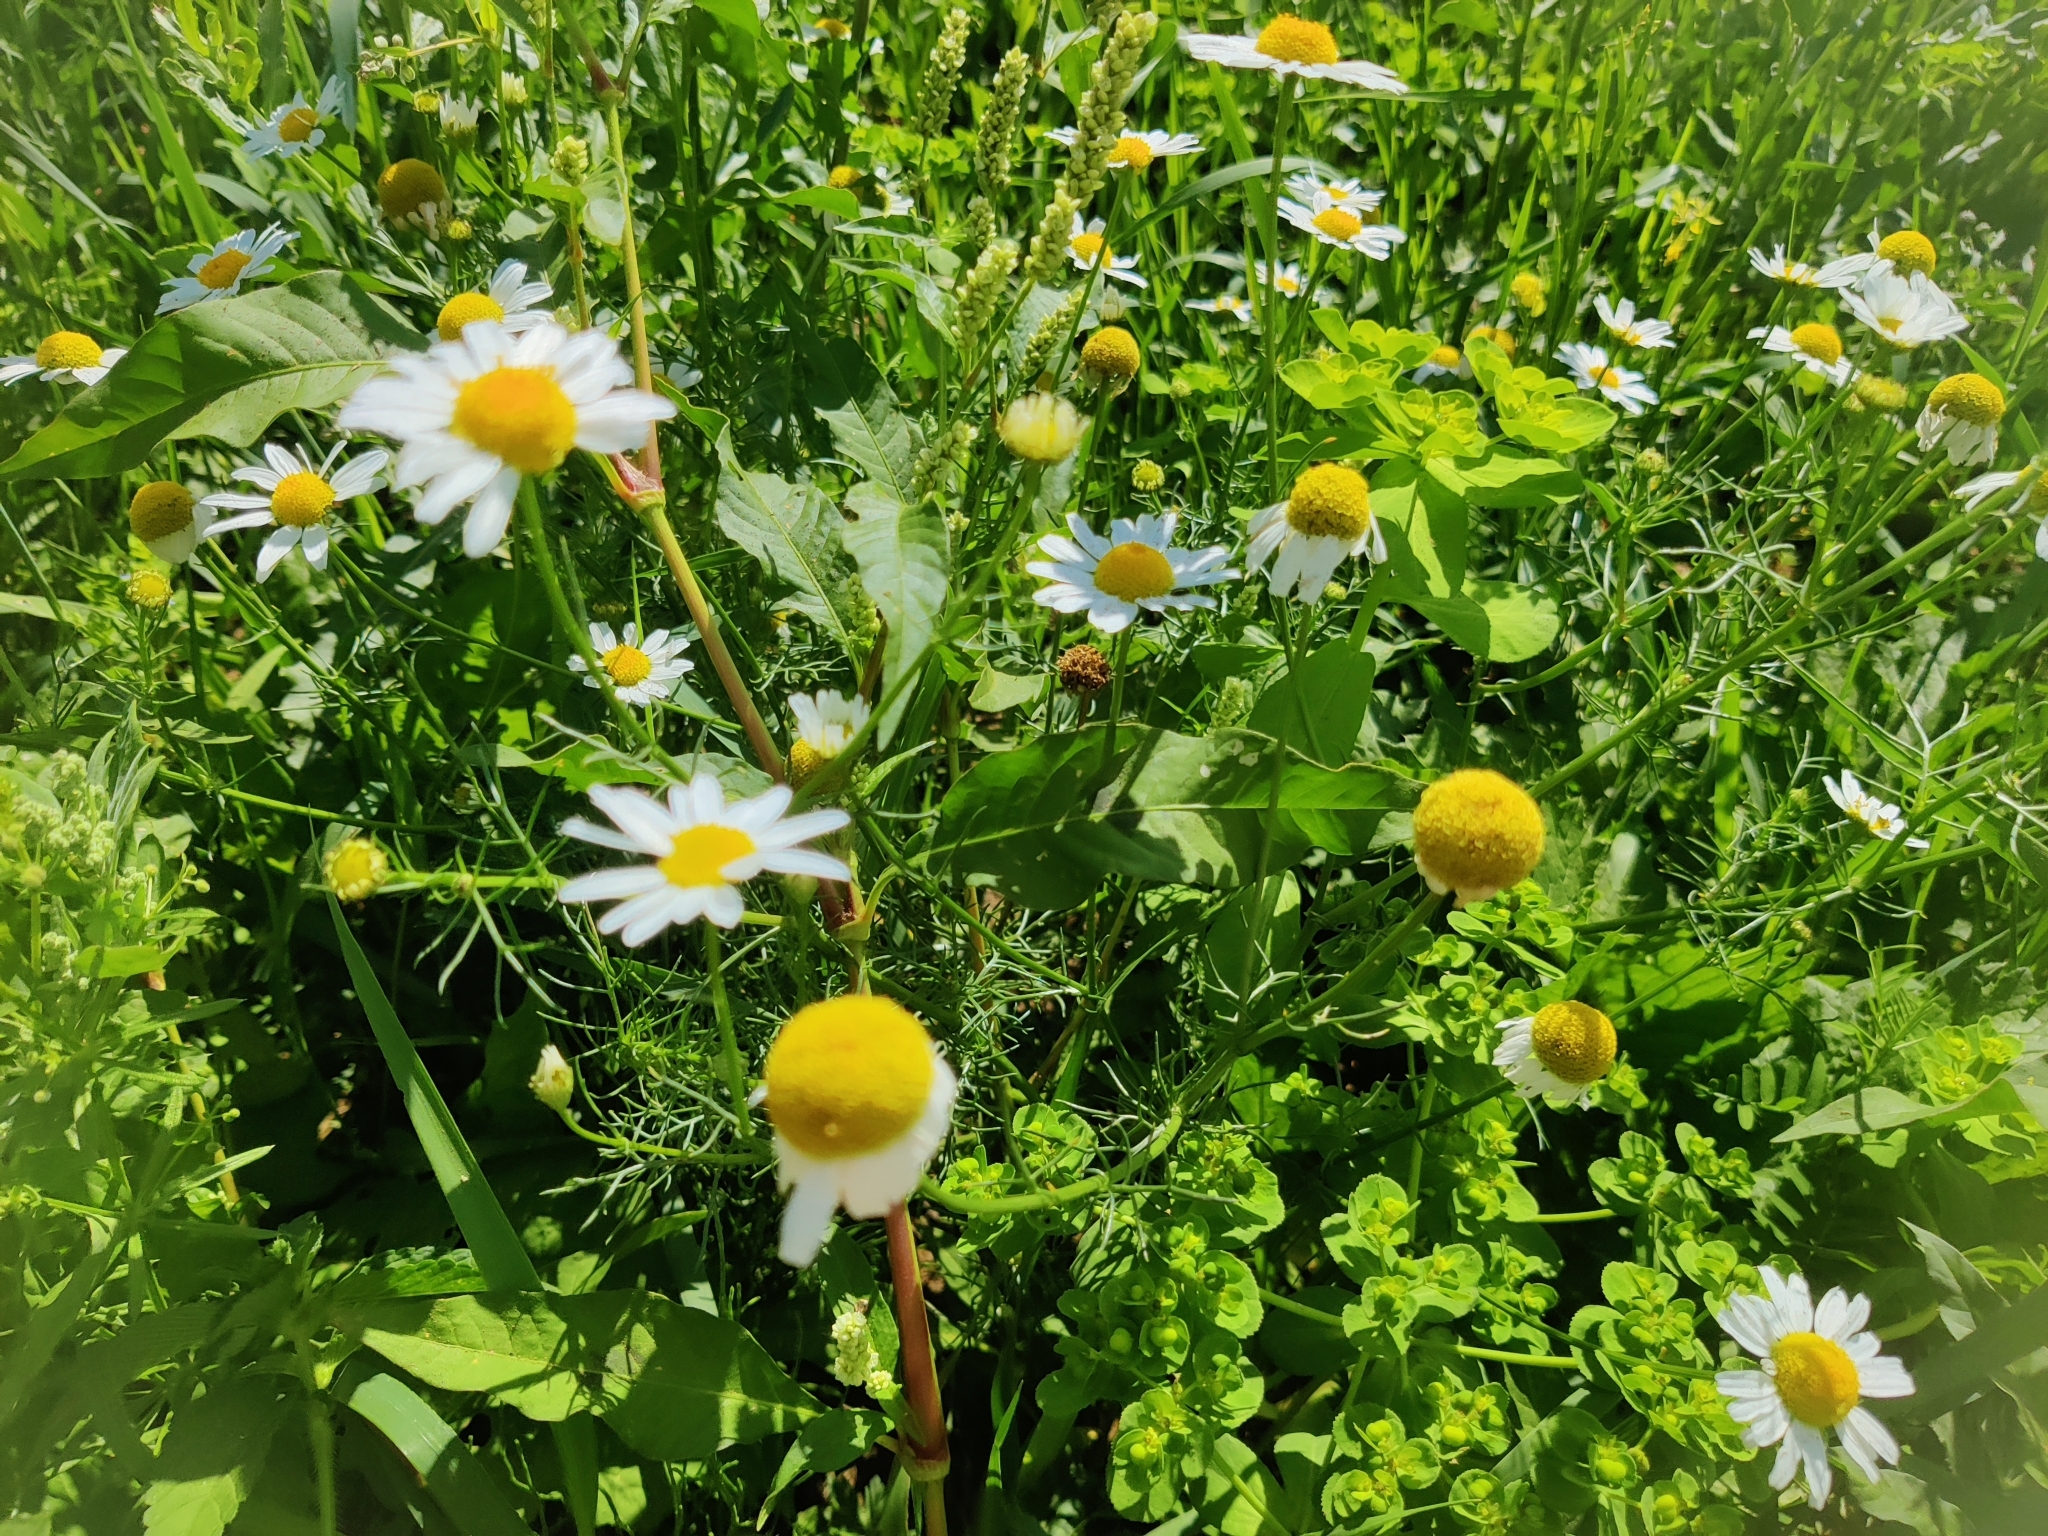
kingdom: Plantae
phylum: Tracheophyta
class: Magnoliopsida
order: Asterales
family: Asteraceae
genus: Tripleurospermum
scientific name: Tripleurospermum inodorum
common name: Scentless mayweed
